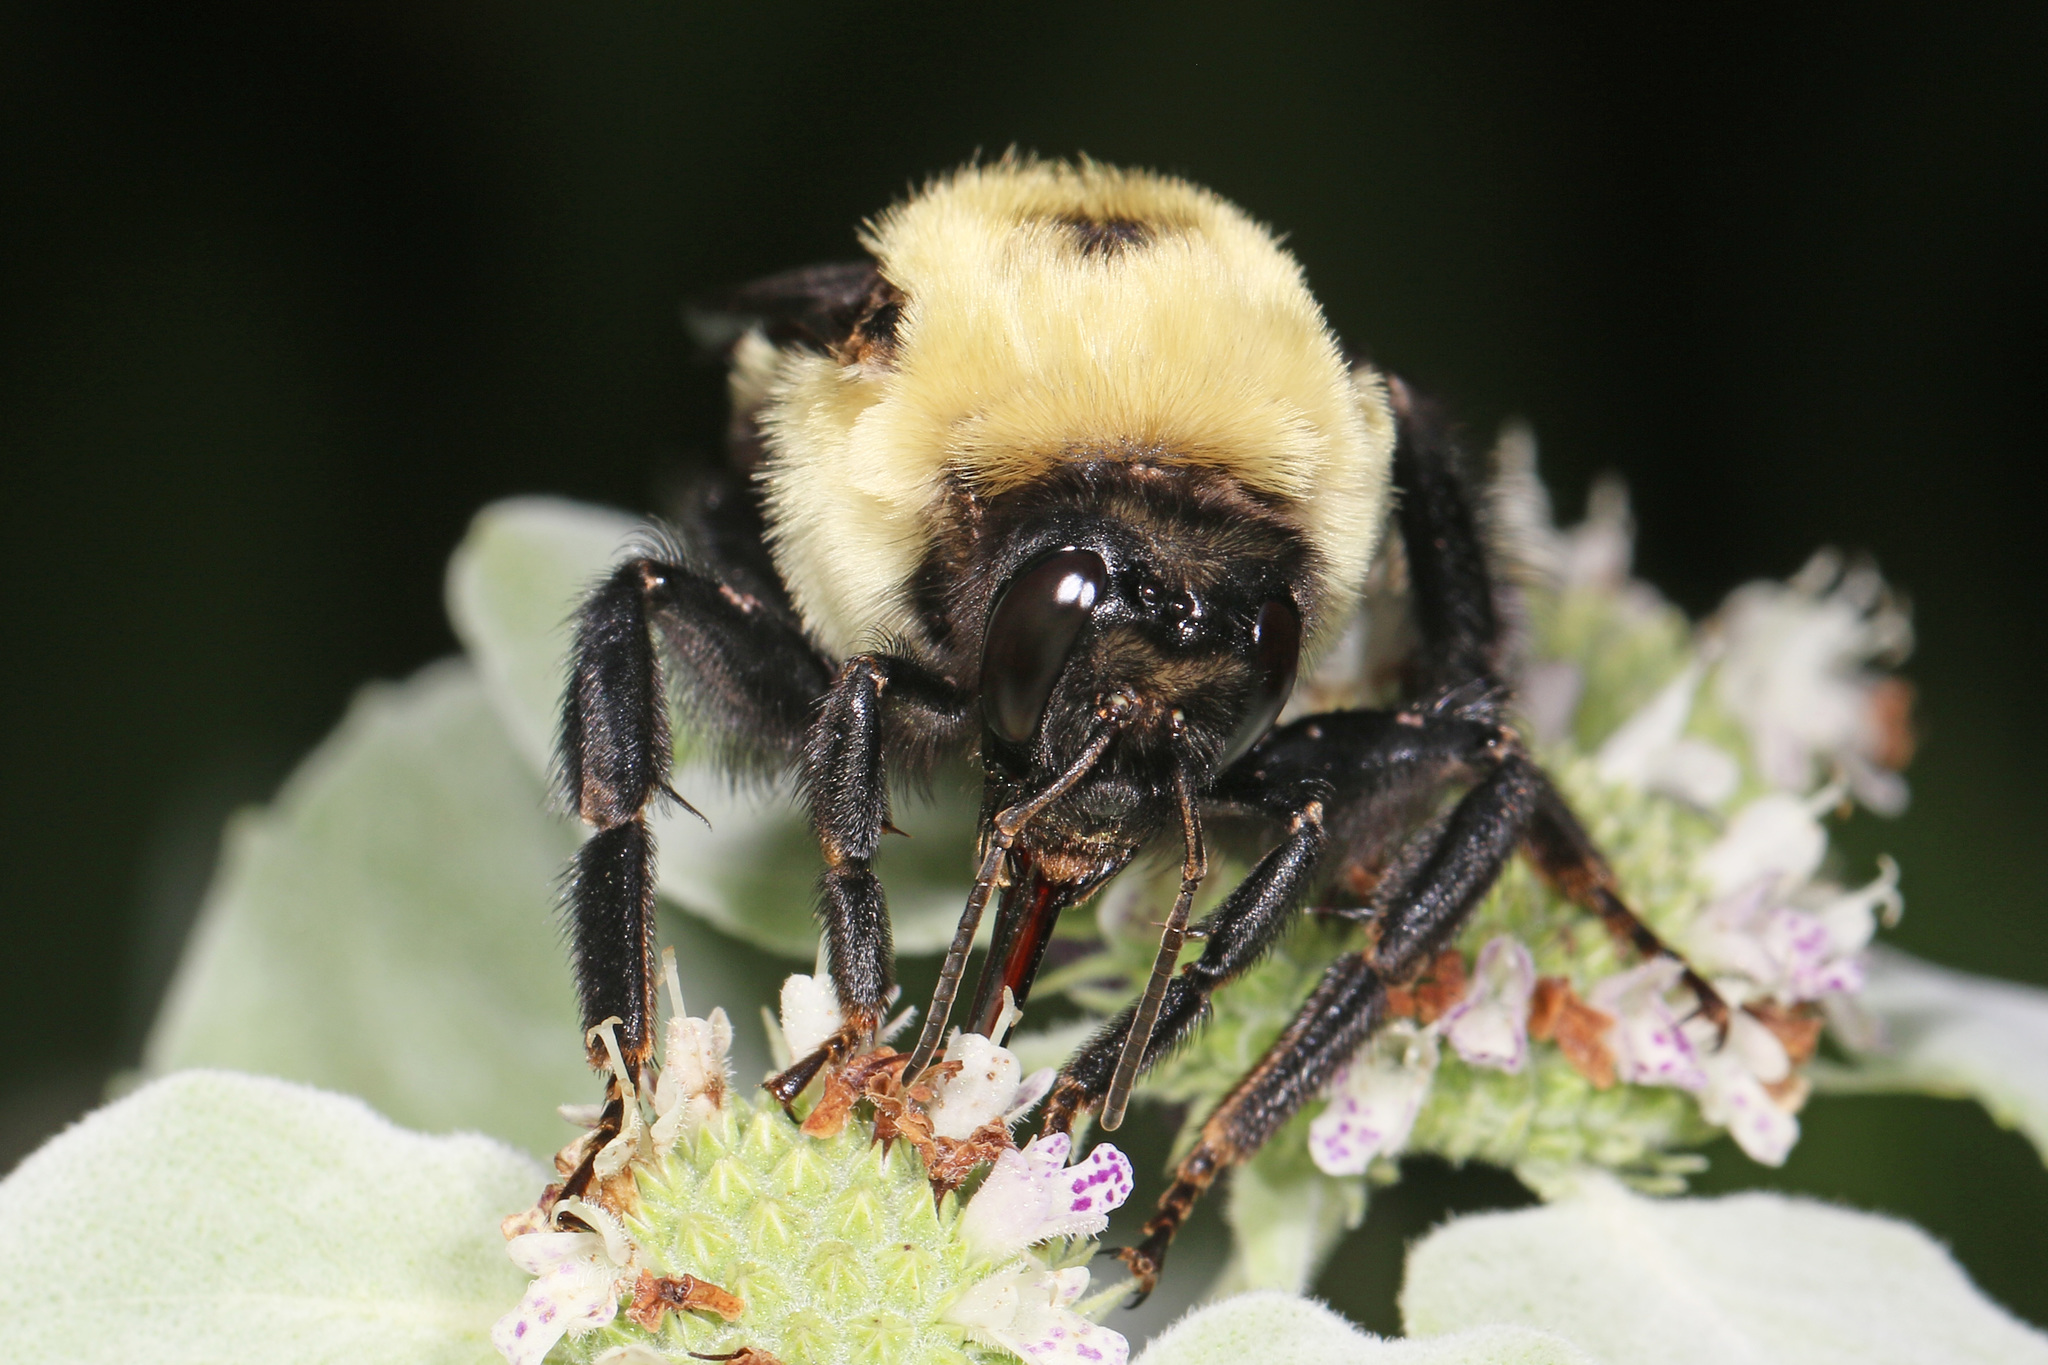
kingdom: Animalia
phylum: Arthropoda
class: Insecta
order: Hymenoptera
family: Apidae
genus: Bombus
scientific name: Bombus griseocollis
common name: Brown-belted bumble bee
